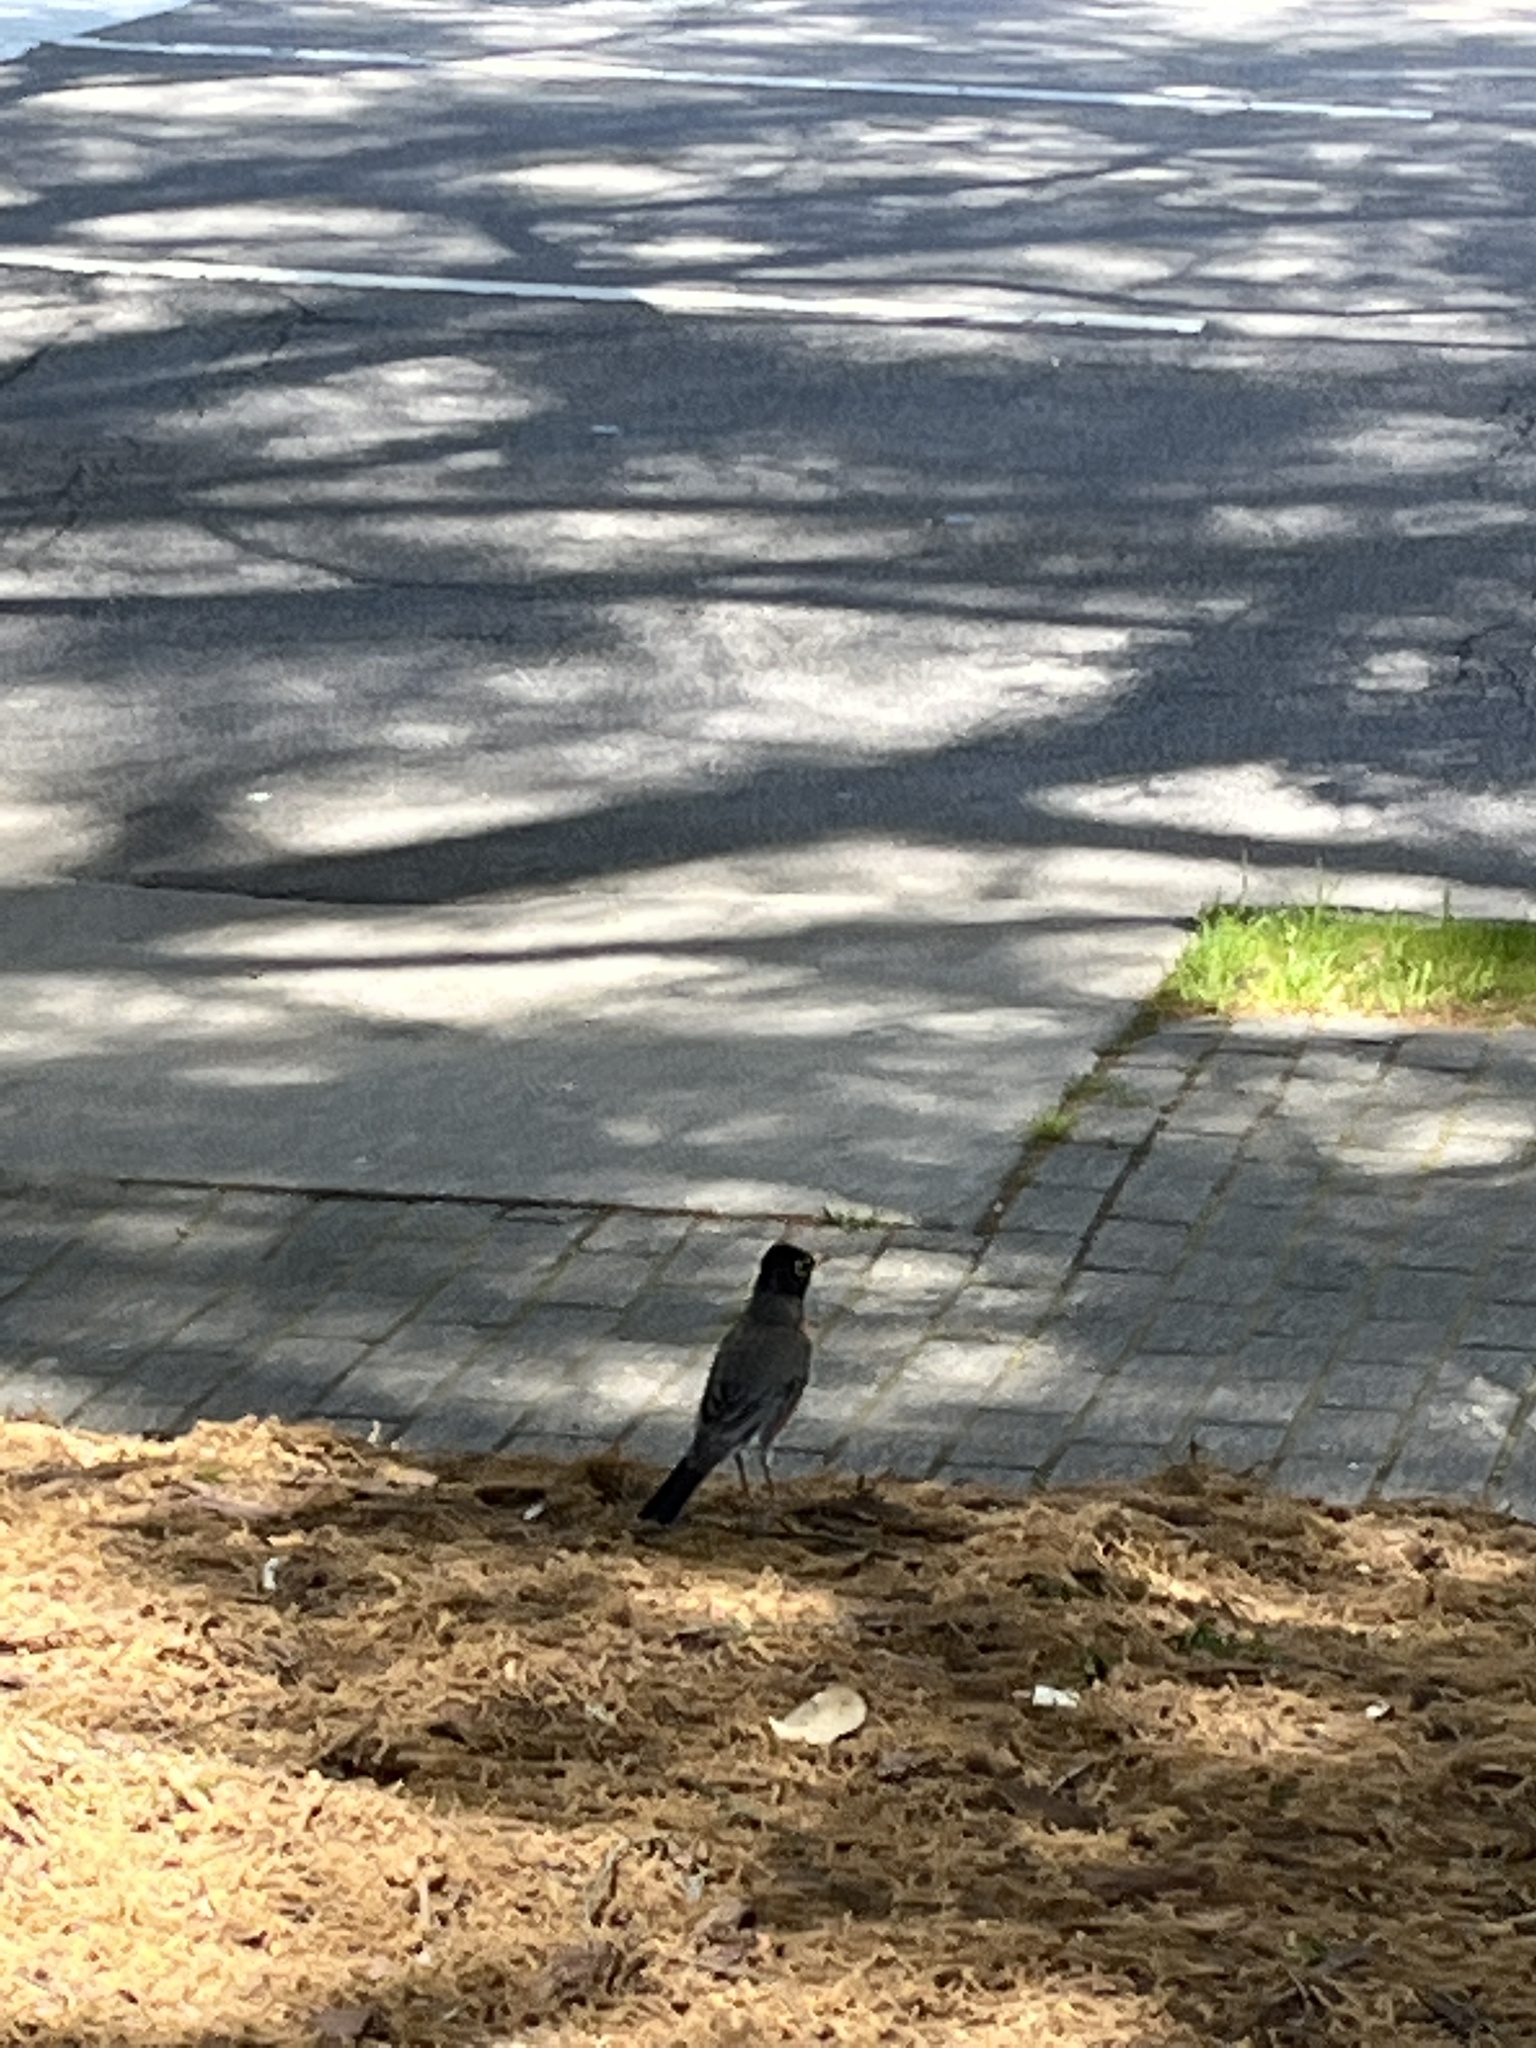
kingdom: Animalia
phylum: Chordata
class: Aves
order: Passeriformes
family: Turdidae
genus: Turdus
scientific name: Turdus migratorius
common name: American robin
